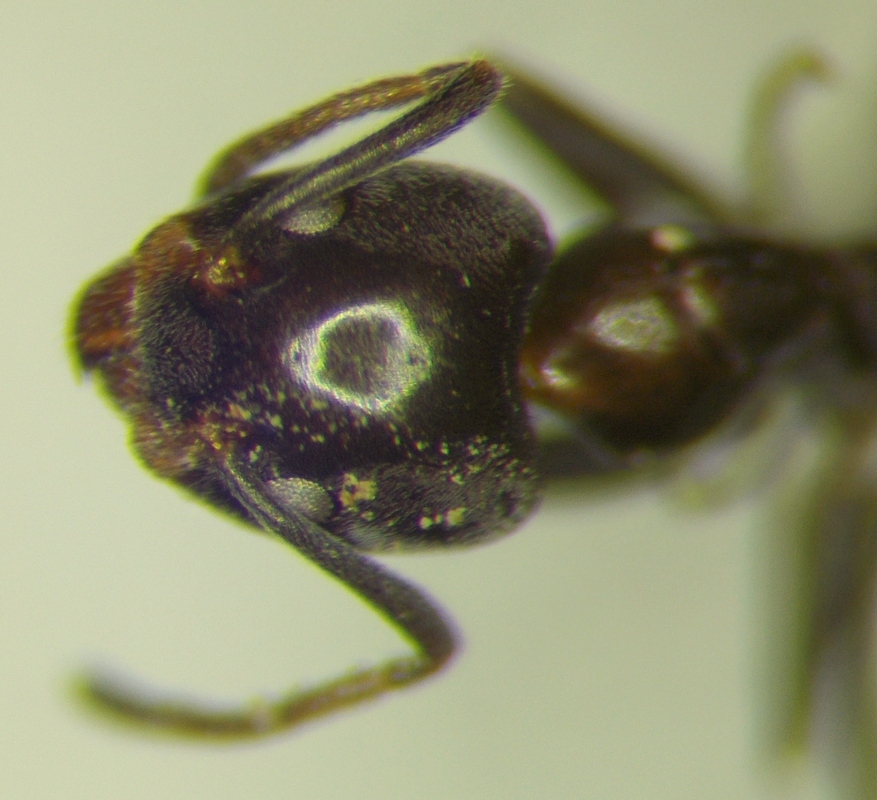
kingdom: Animalia
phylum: Arthropoda
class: Insecta
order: Hymenoptera
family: Formicidae
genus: Liometopum
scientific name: Liometopum luctuosum
